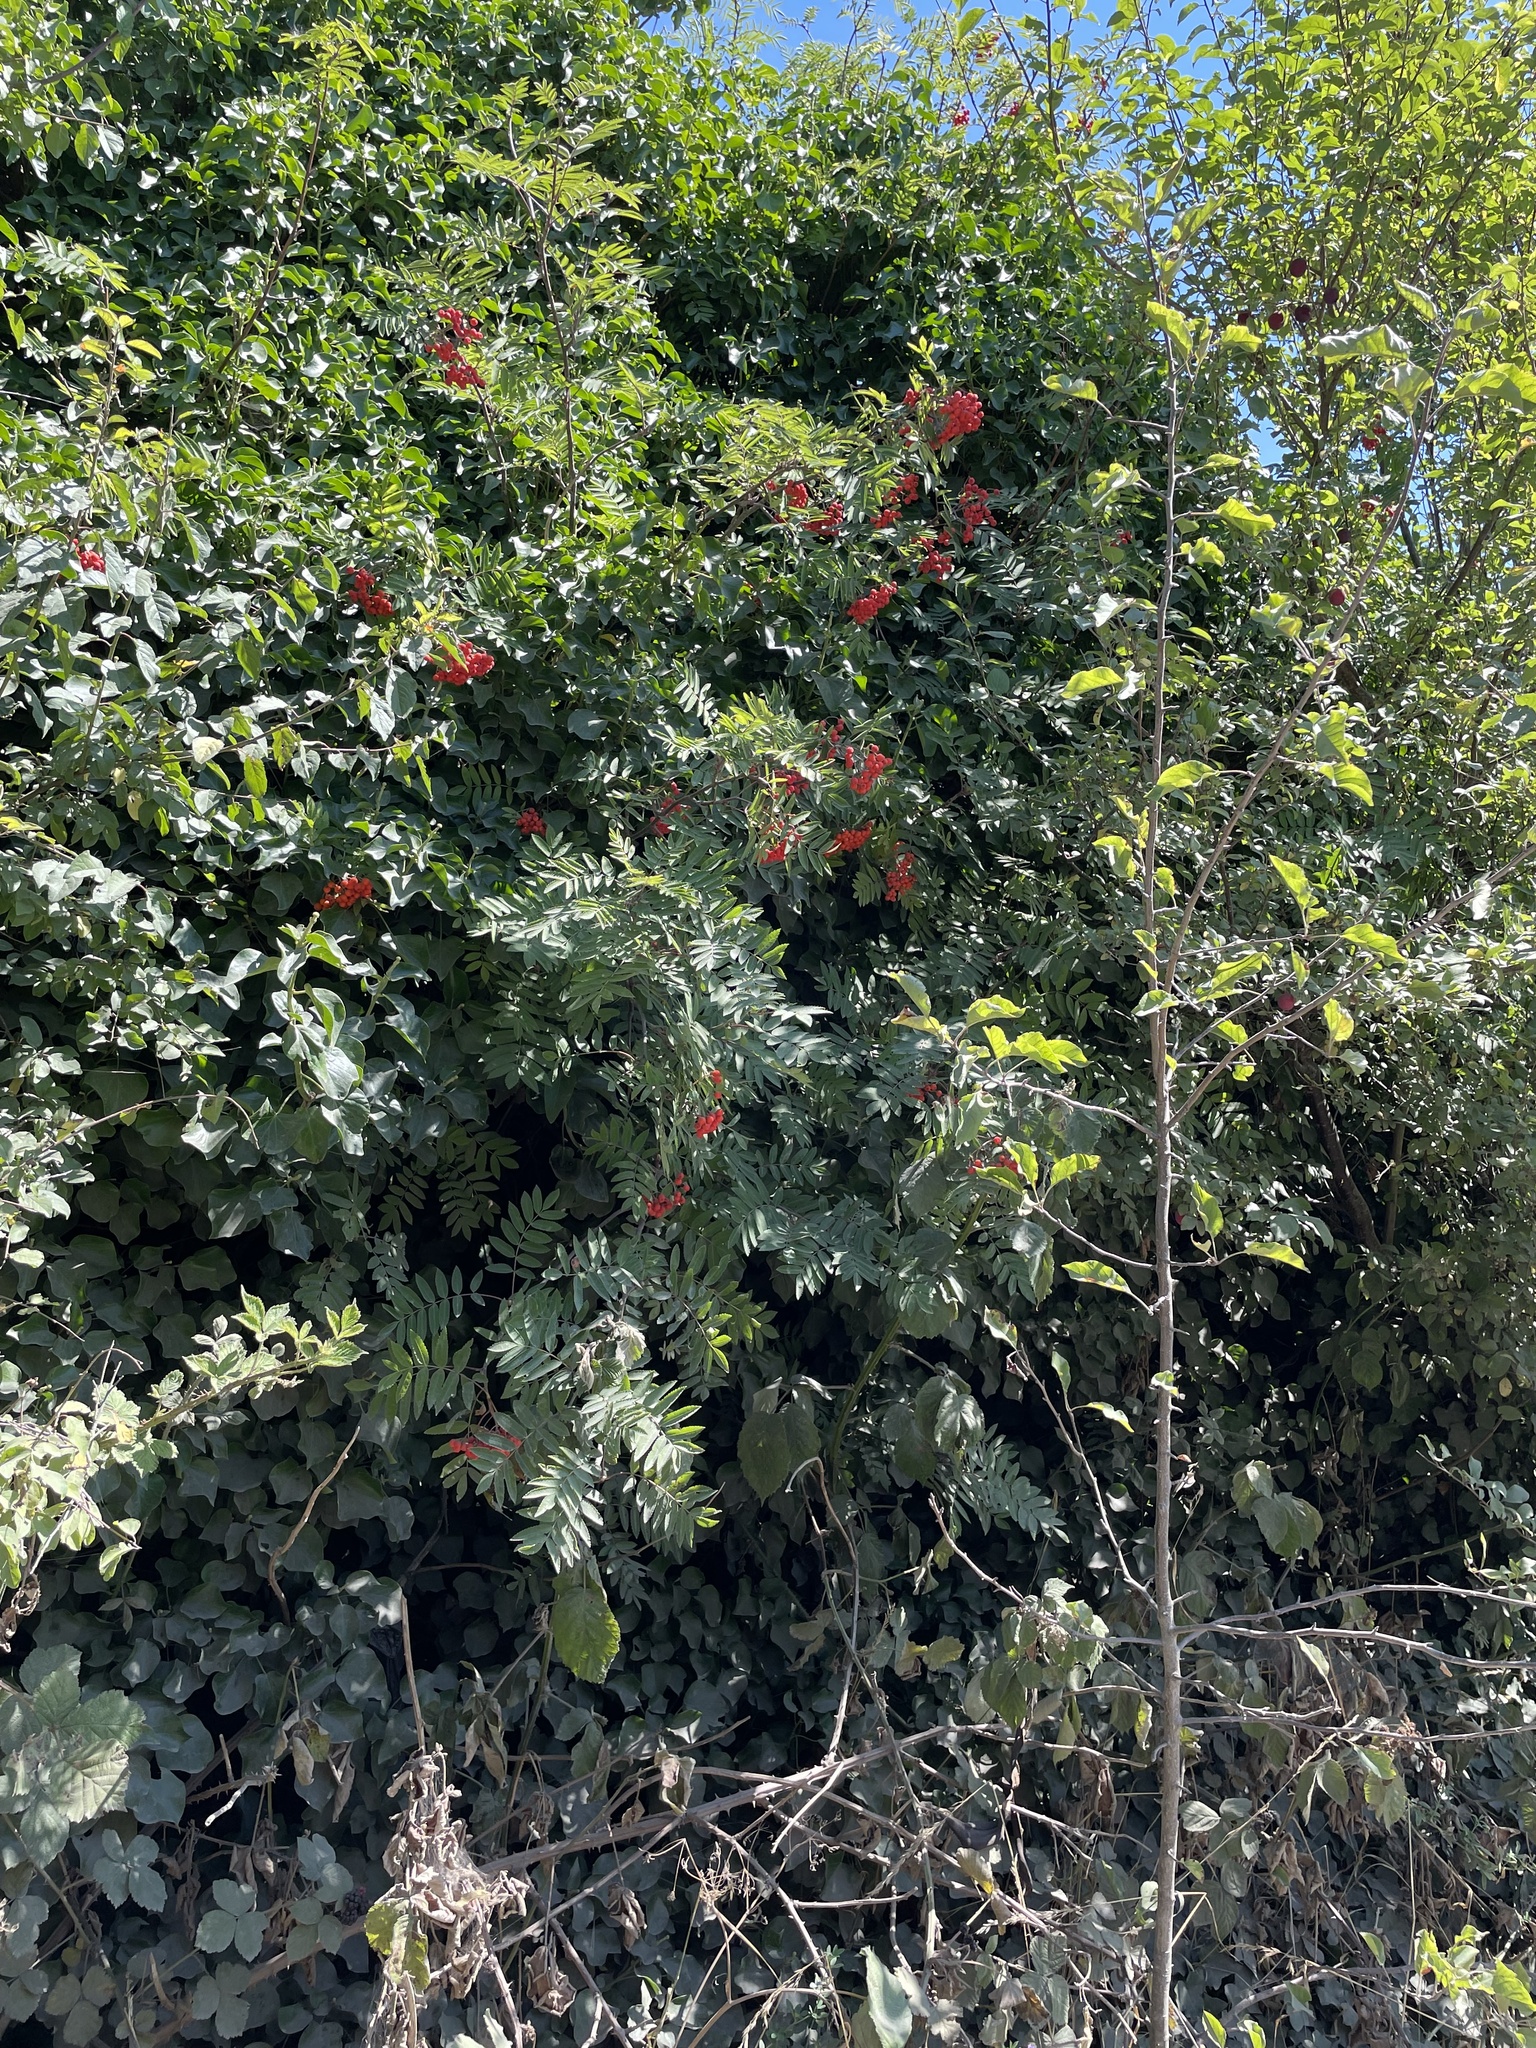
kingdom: Plantae
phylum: Tracheophyta
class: Magnoliopsida
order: Rosales
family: Rosaceae
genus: Sorbus
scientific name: Sorbus aucuparia
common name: Rowan
